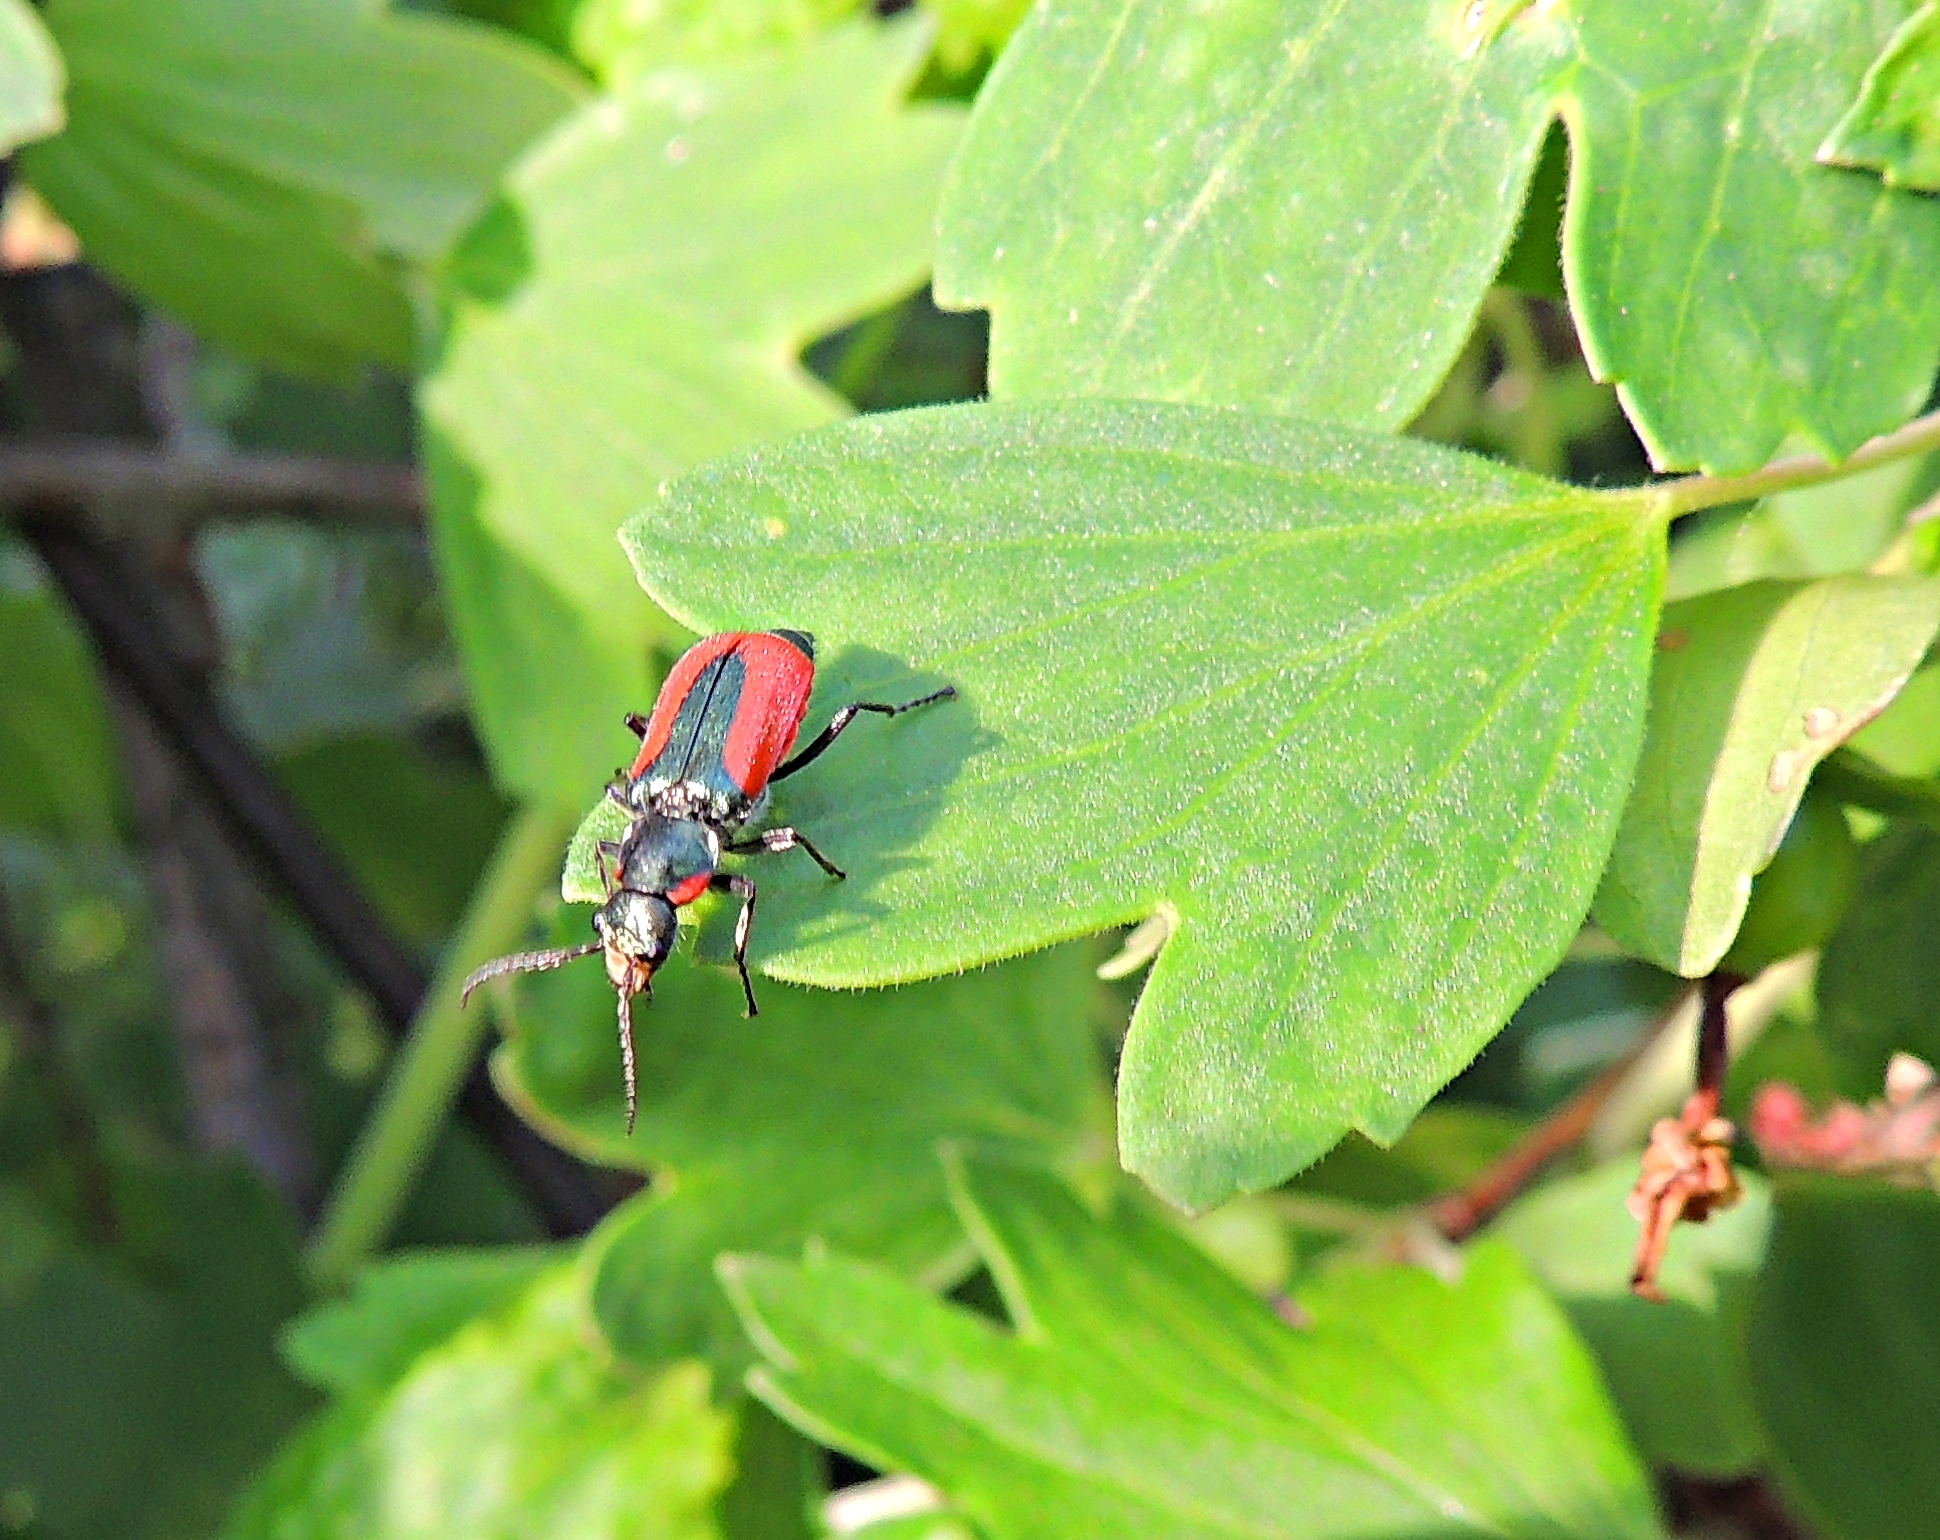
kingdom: Animalia
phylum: Arthropoda
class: Insecta
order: Coleoptera
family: Melyridae
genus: Malachius
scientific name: Malachius aeneus
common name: Scarlet malachite beetle
